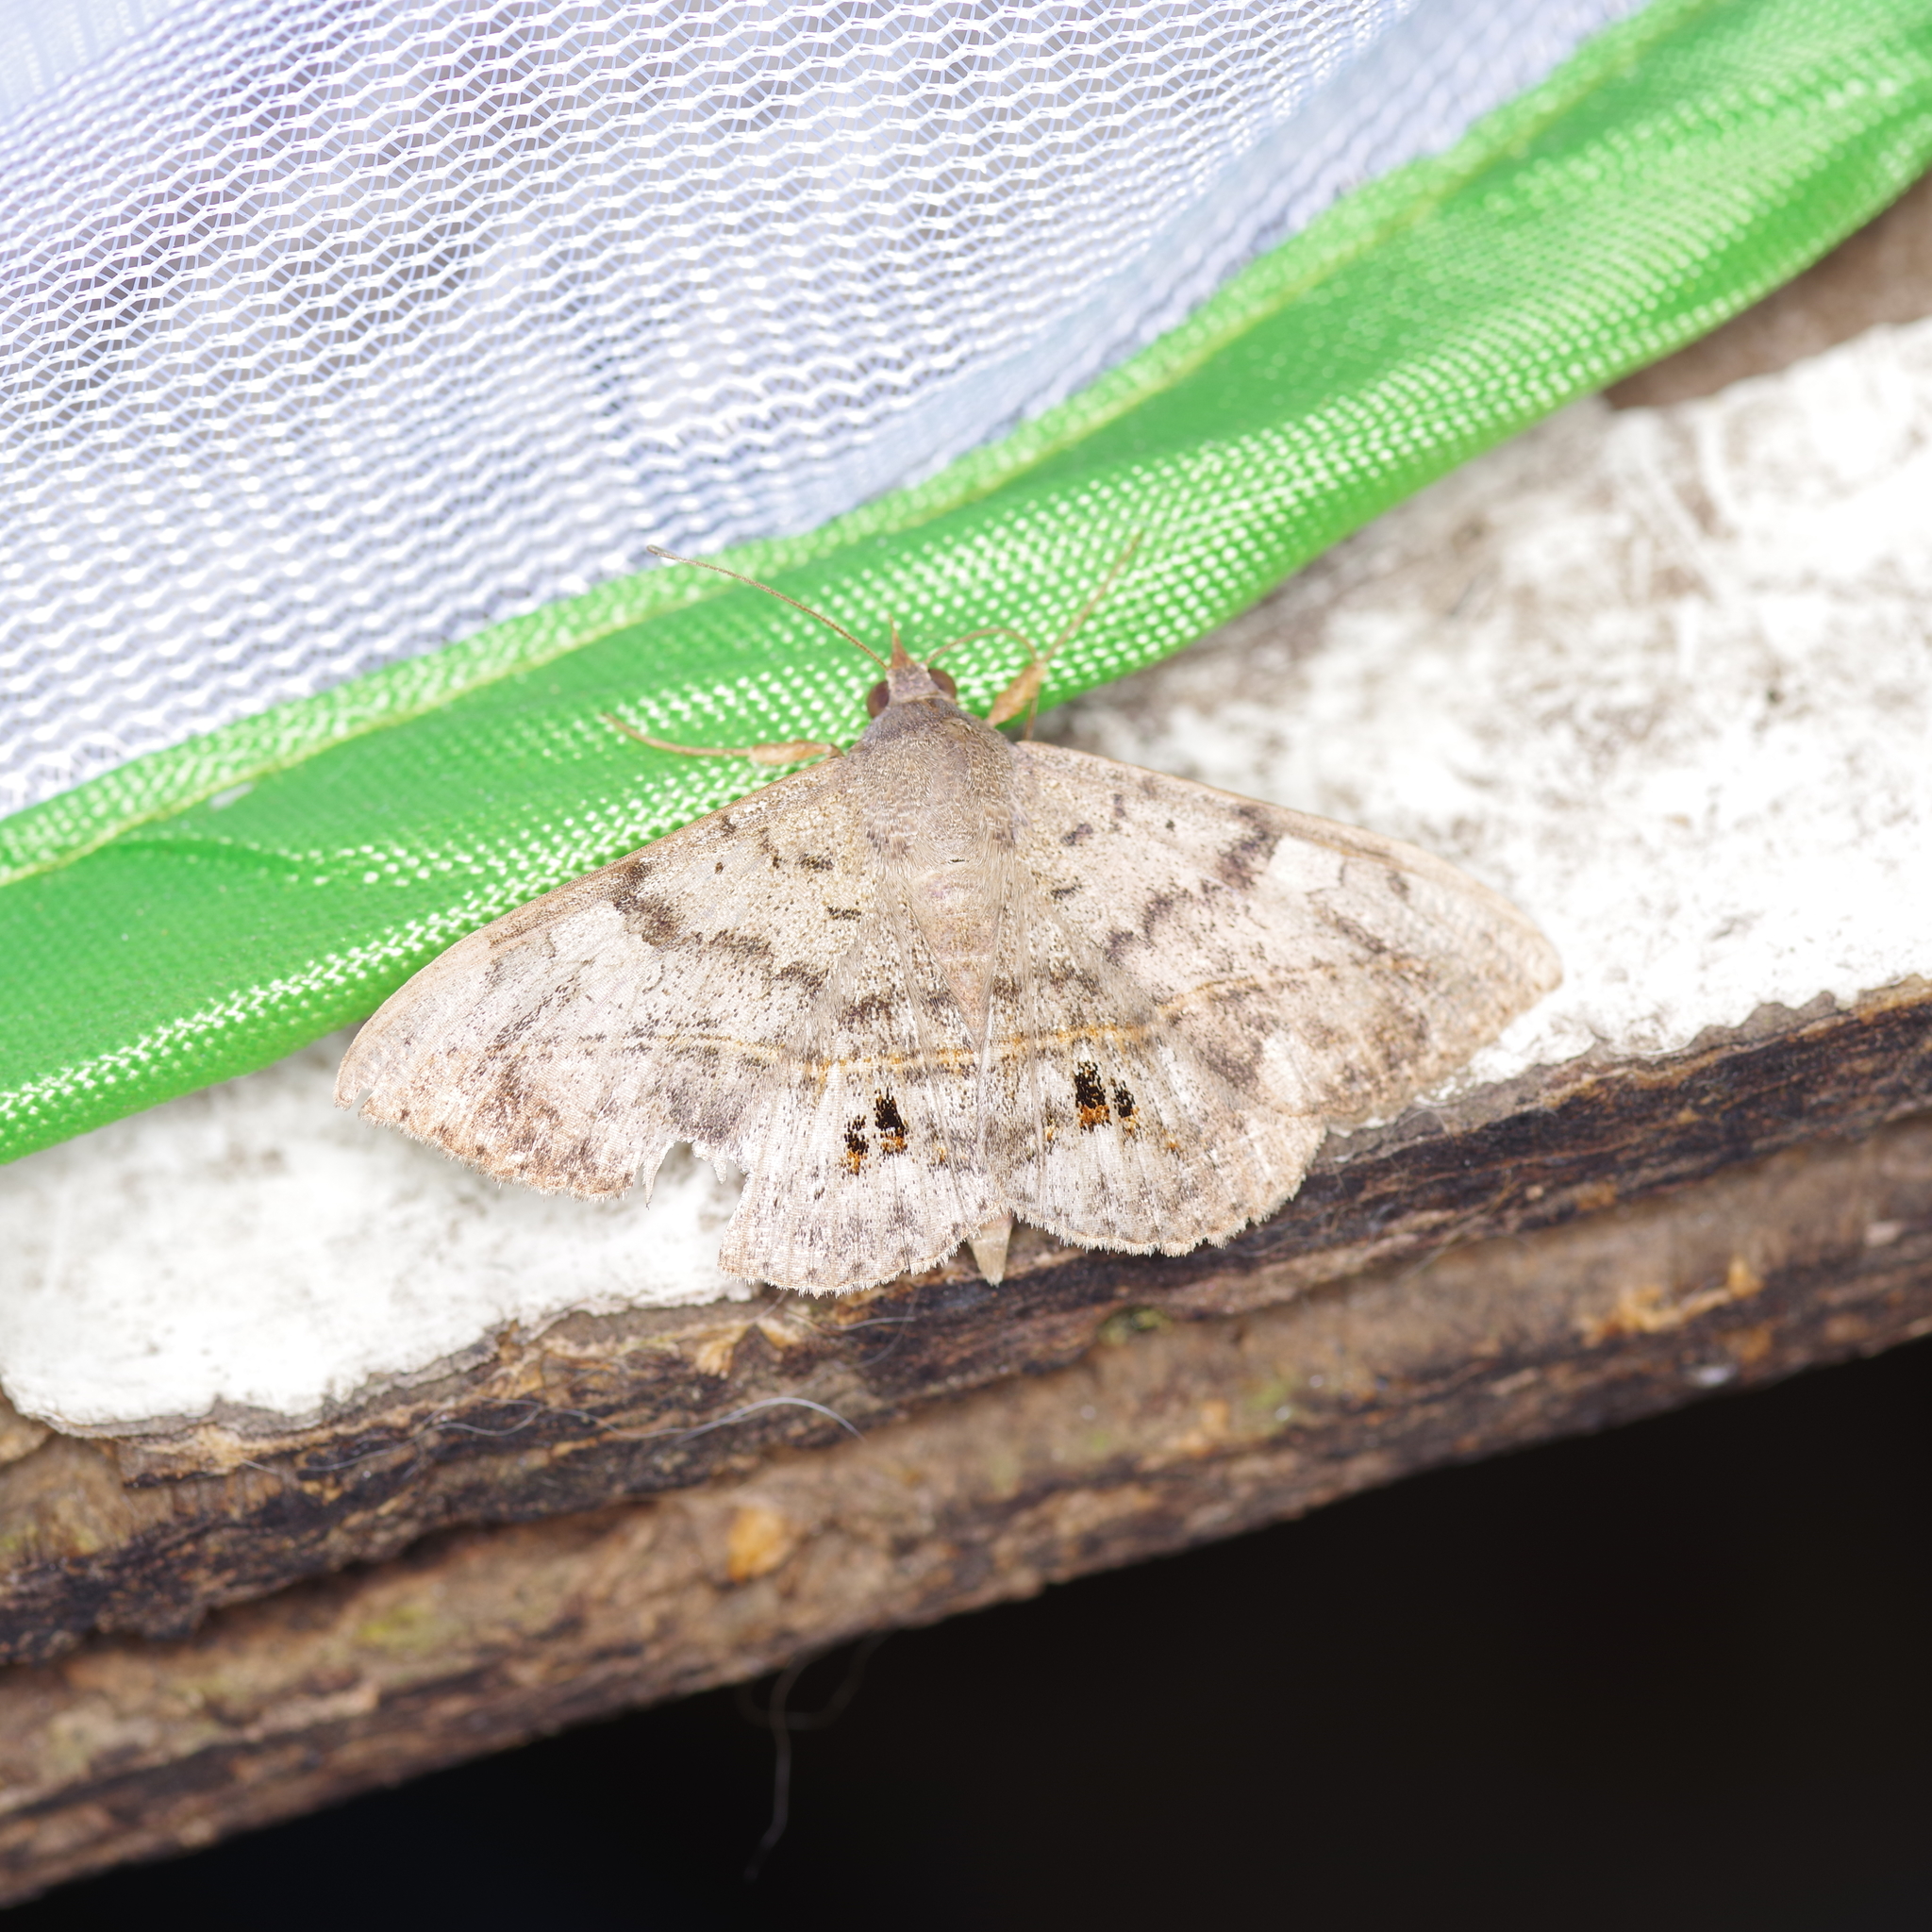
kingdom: Animalia
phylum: Arthropoda
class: Insecta
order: Lepidoptera
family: Pieridae
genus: Pyrisitia
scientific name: Pyrisitia lisa
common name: Little yellow
